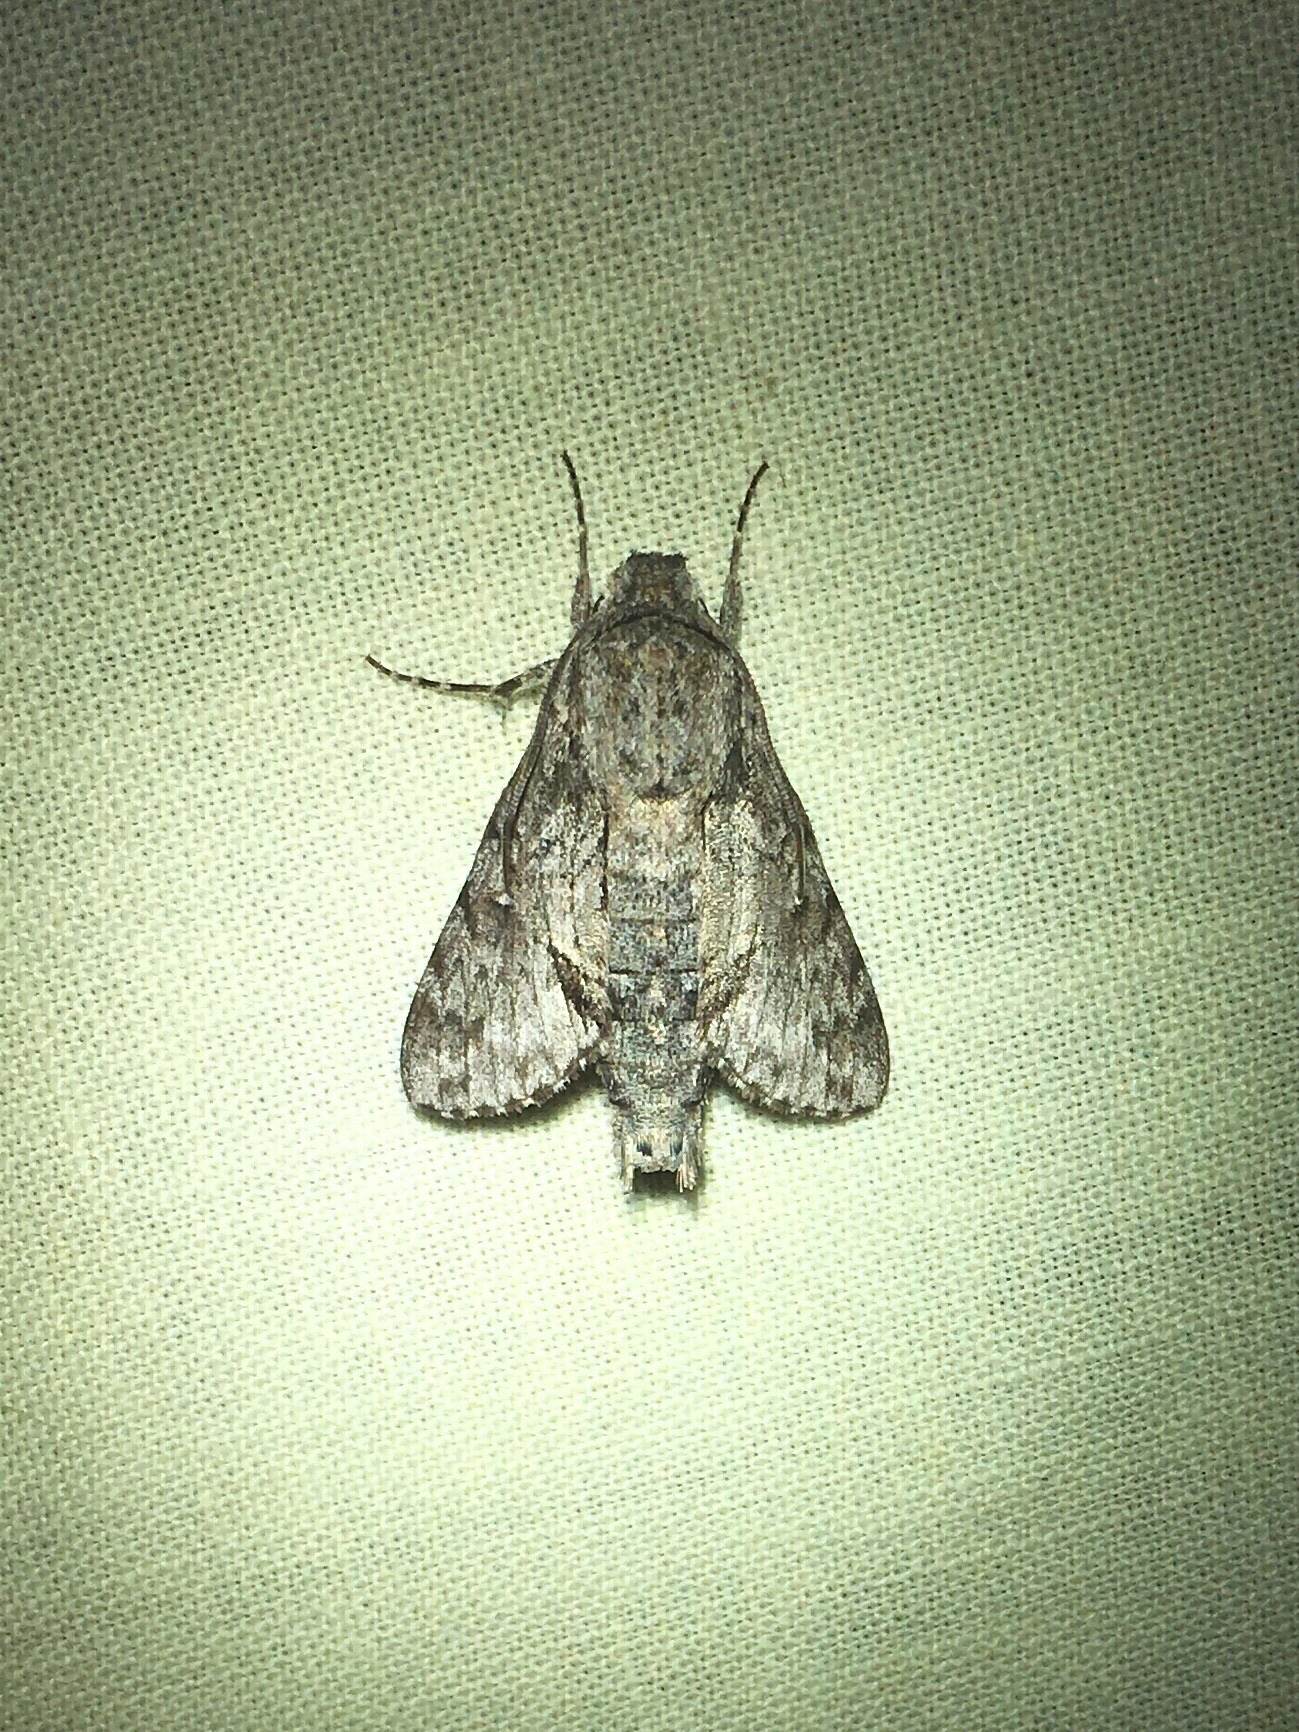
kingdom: Animalia
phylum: Arthropoda
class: Insecta
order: Lepidoptera
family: Sphingidae
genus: Cautethia
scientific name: Cautethia grotei
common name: Grote's sphinx
